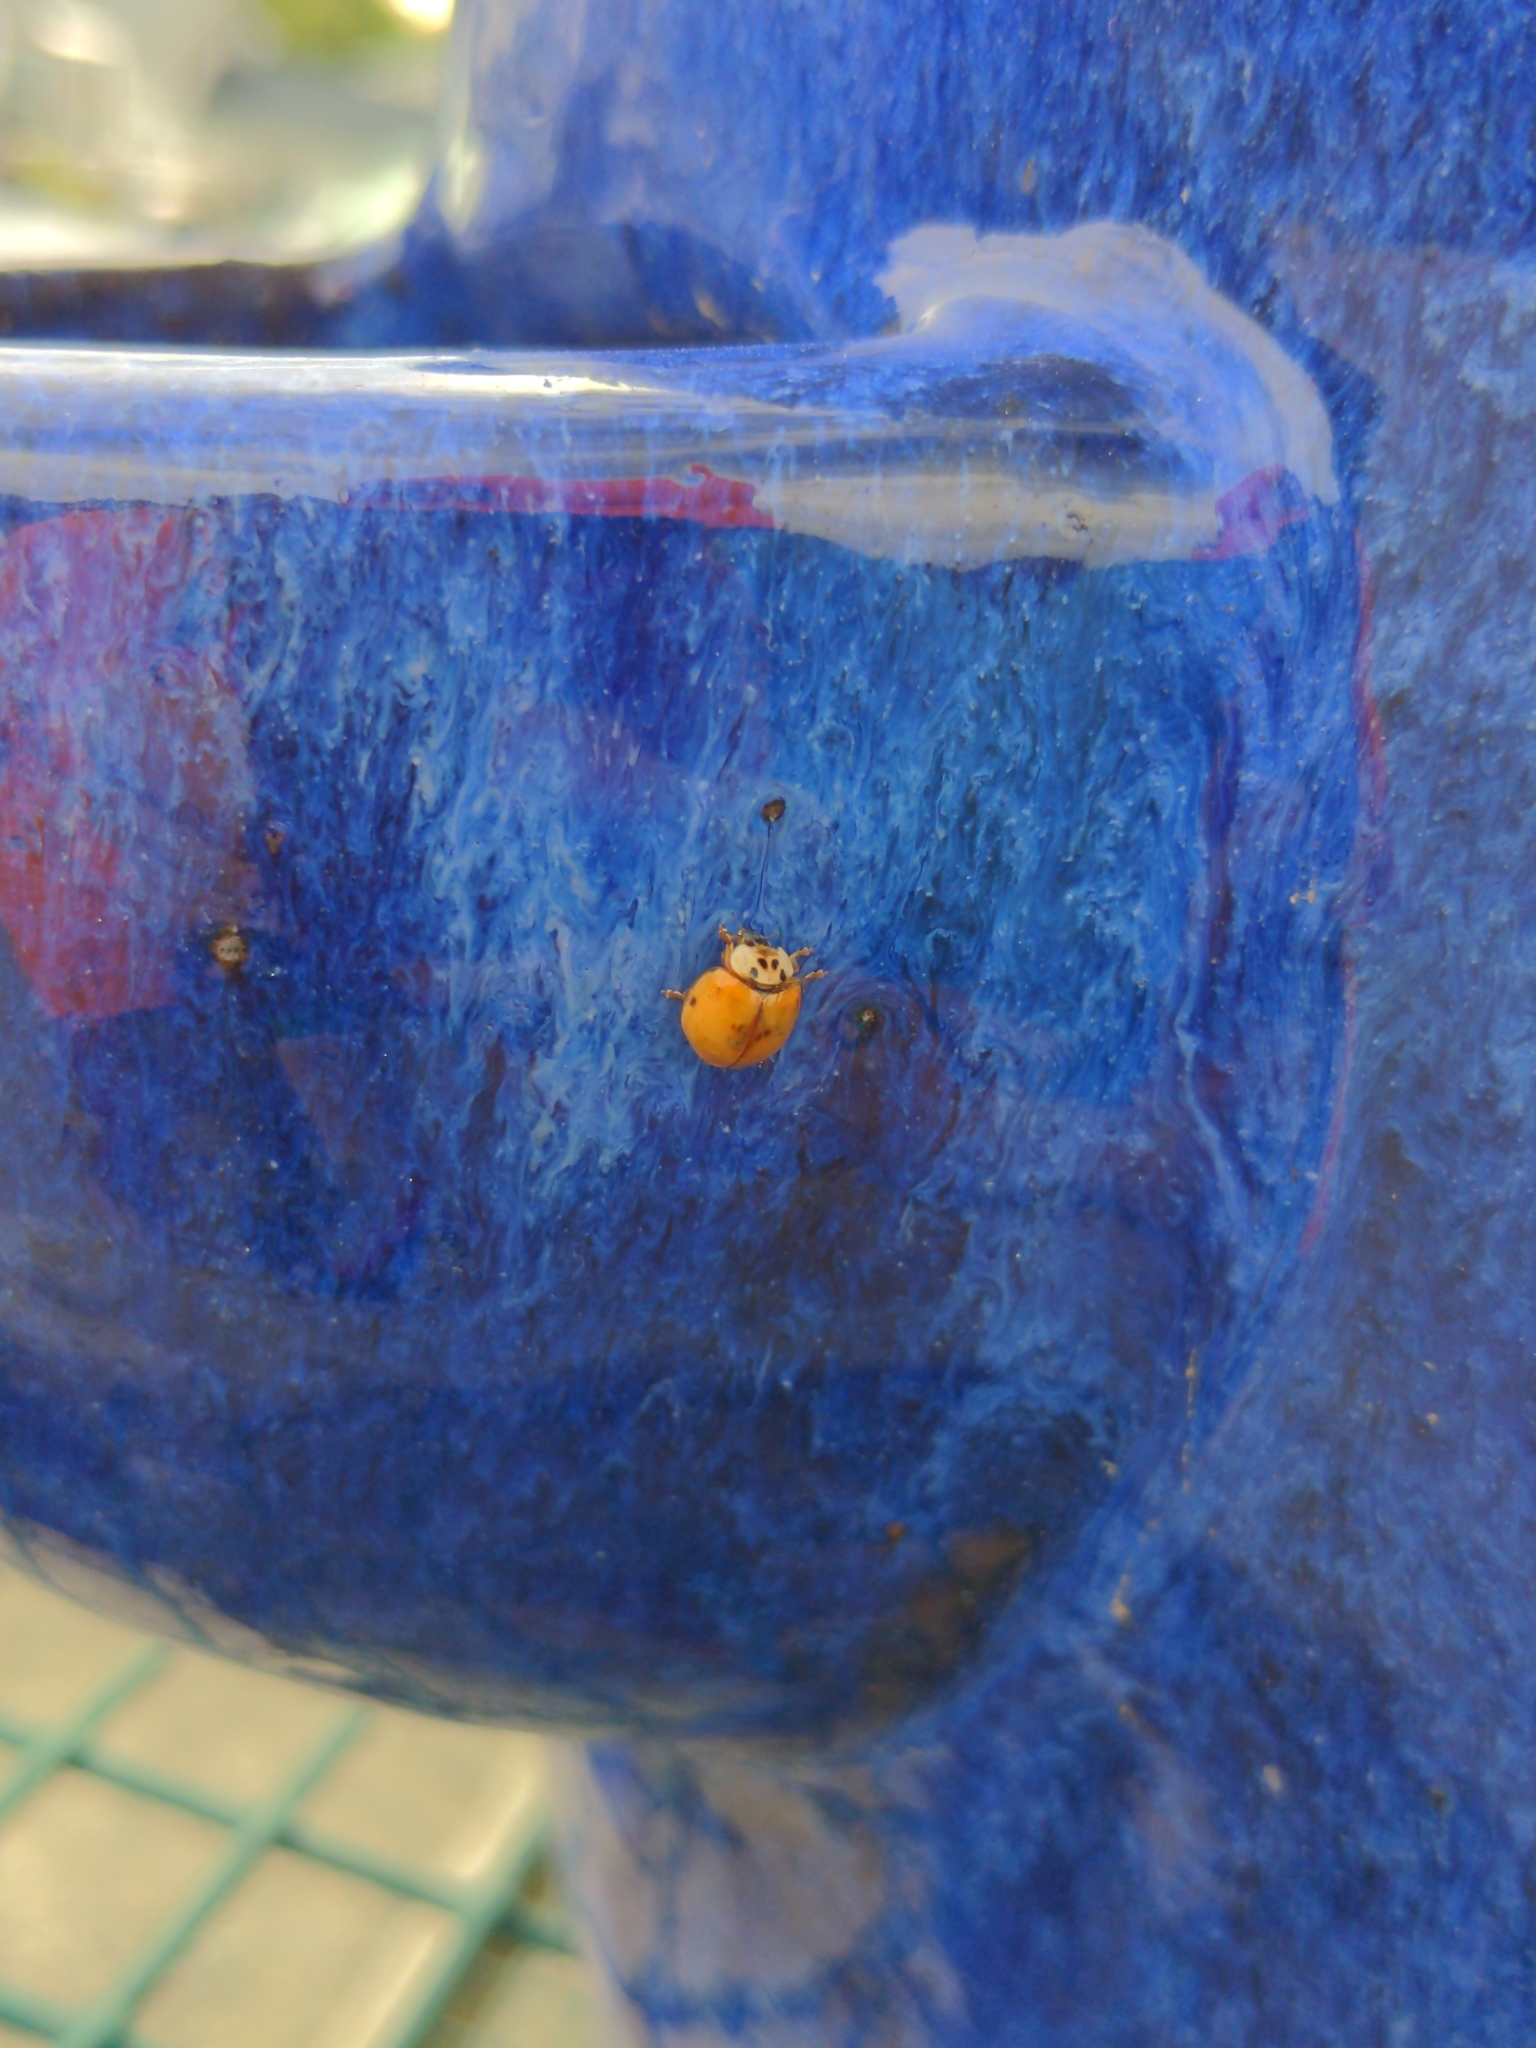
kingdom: Animalia
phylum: Arthropoda
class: Insecta
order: Coleoptera
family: Coccinellidae
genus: Harmonia
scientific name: Harmonia axyridis
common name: Harlequin ladybird
